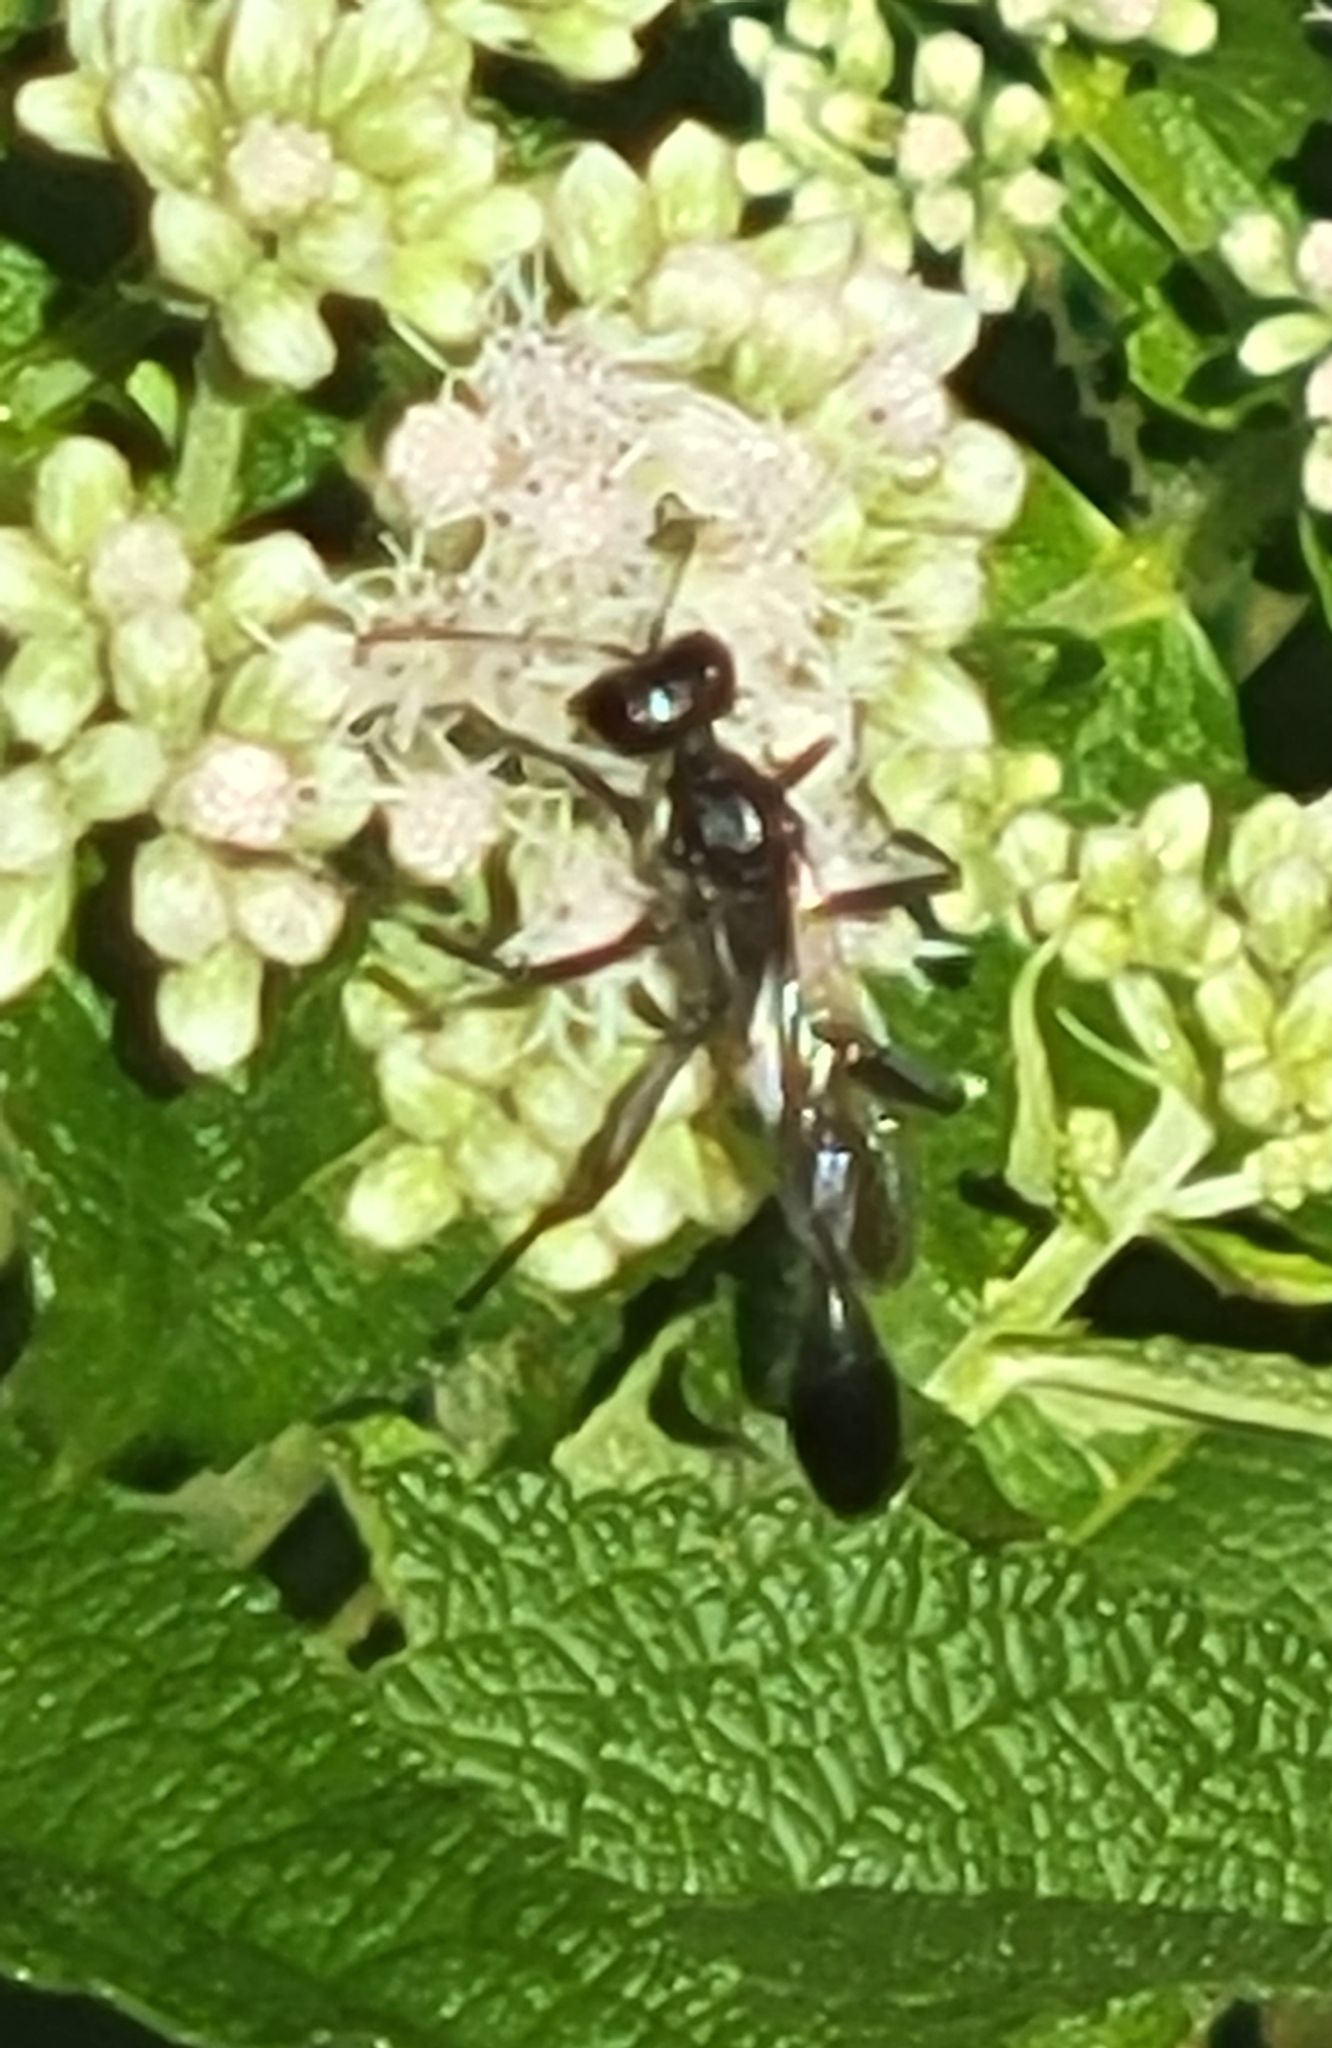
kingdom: Animalia
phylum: Arthropoda
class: Insecta
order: Hymenoptera
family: Sphecidae
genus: Eremnophila
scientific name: Eremnophila aureonotata
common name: Gold-marked thread-waisted wasp
